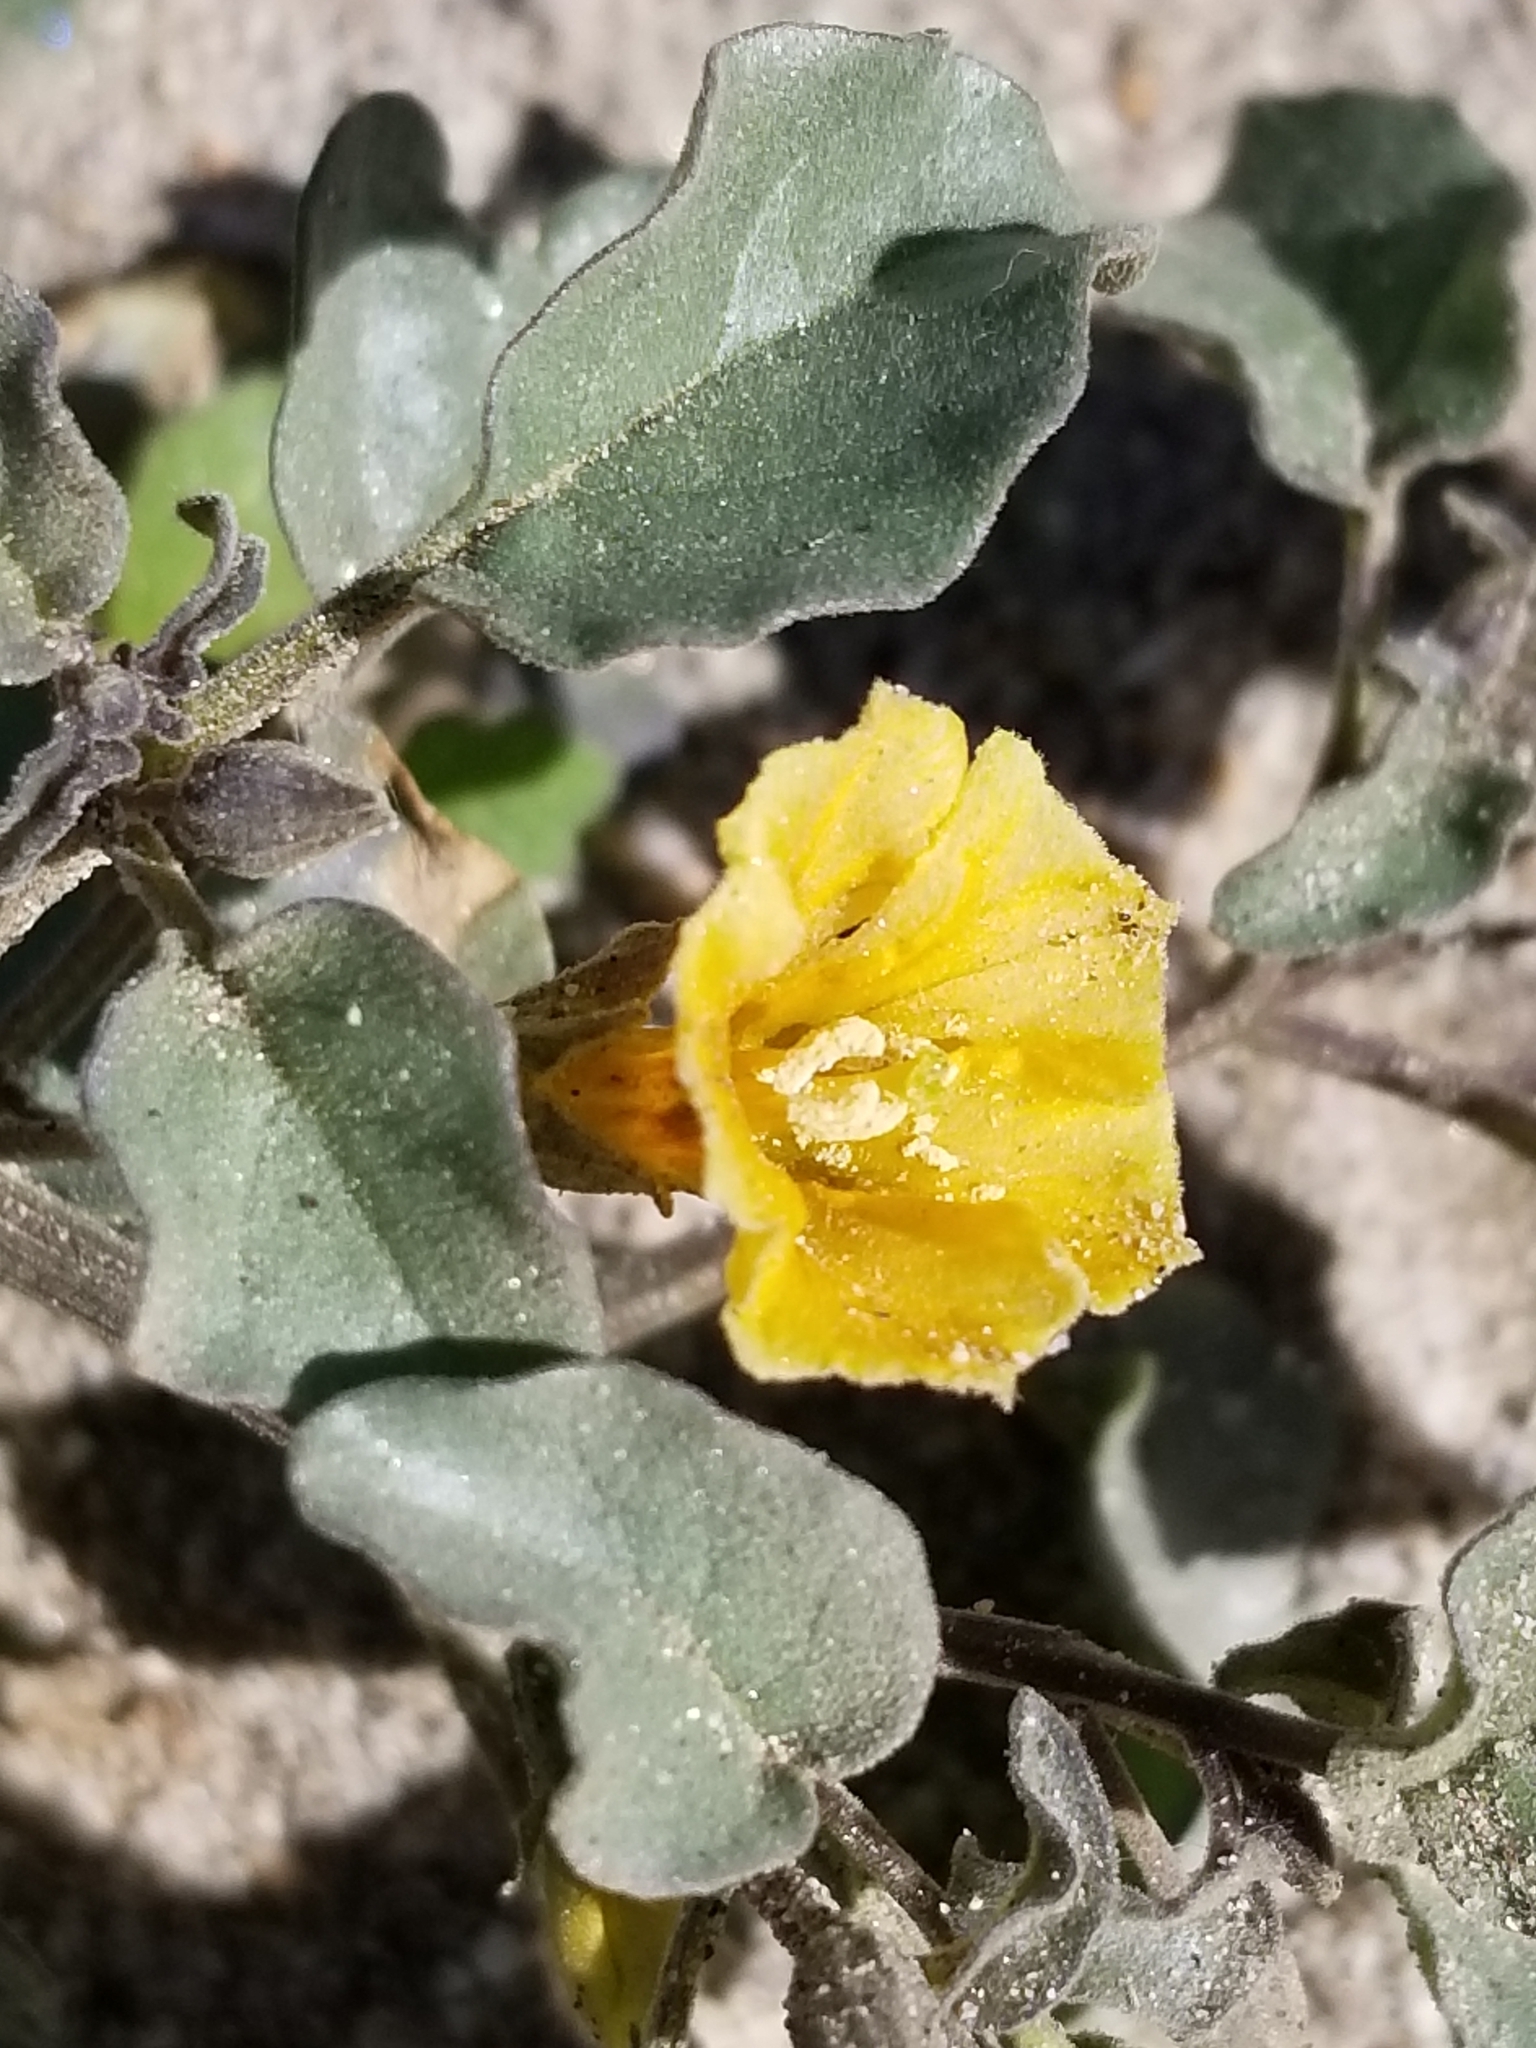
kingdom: Plantae
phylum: Tracheophyta
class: Magnoliopsida
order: Solanales
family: Solanaceae
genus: Physalis
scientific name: Physalis crassifolia
